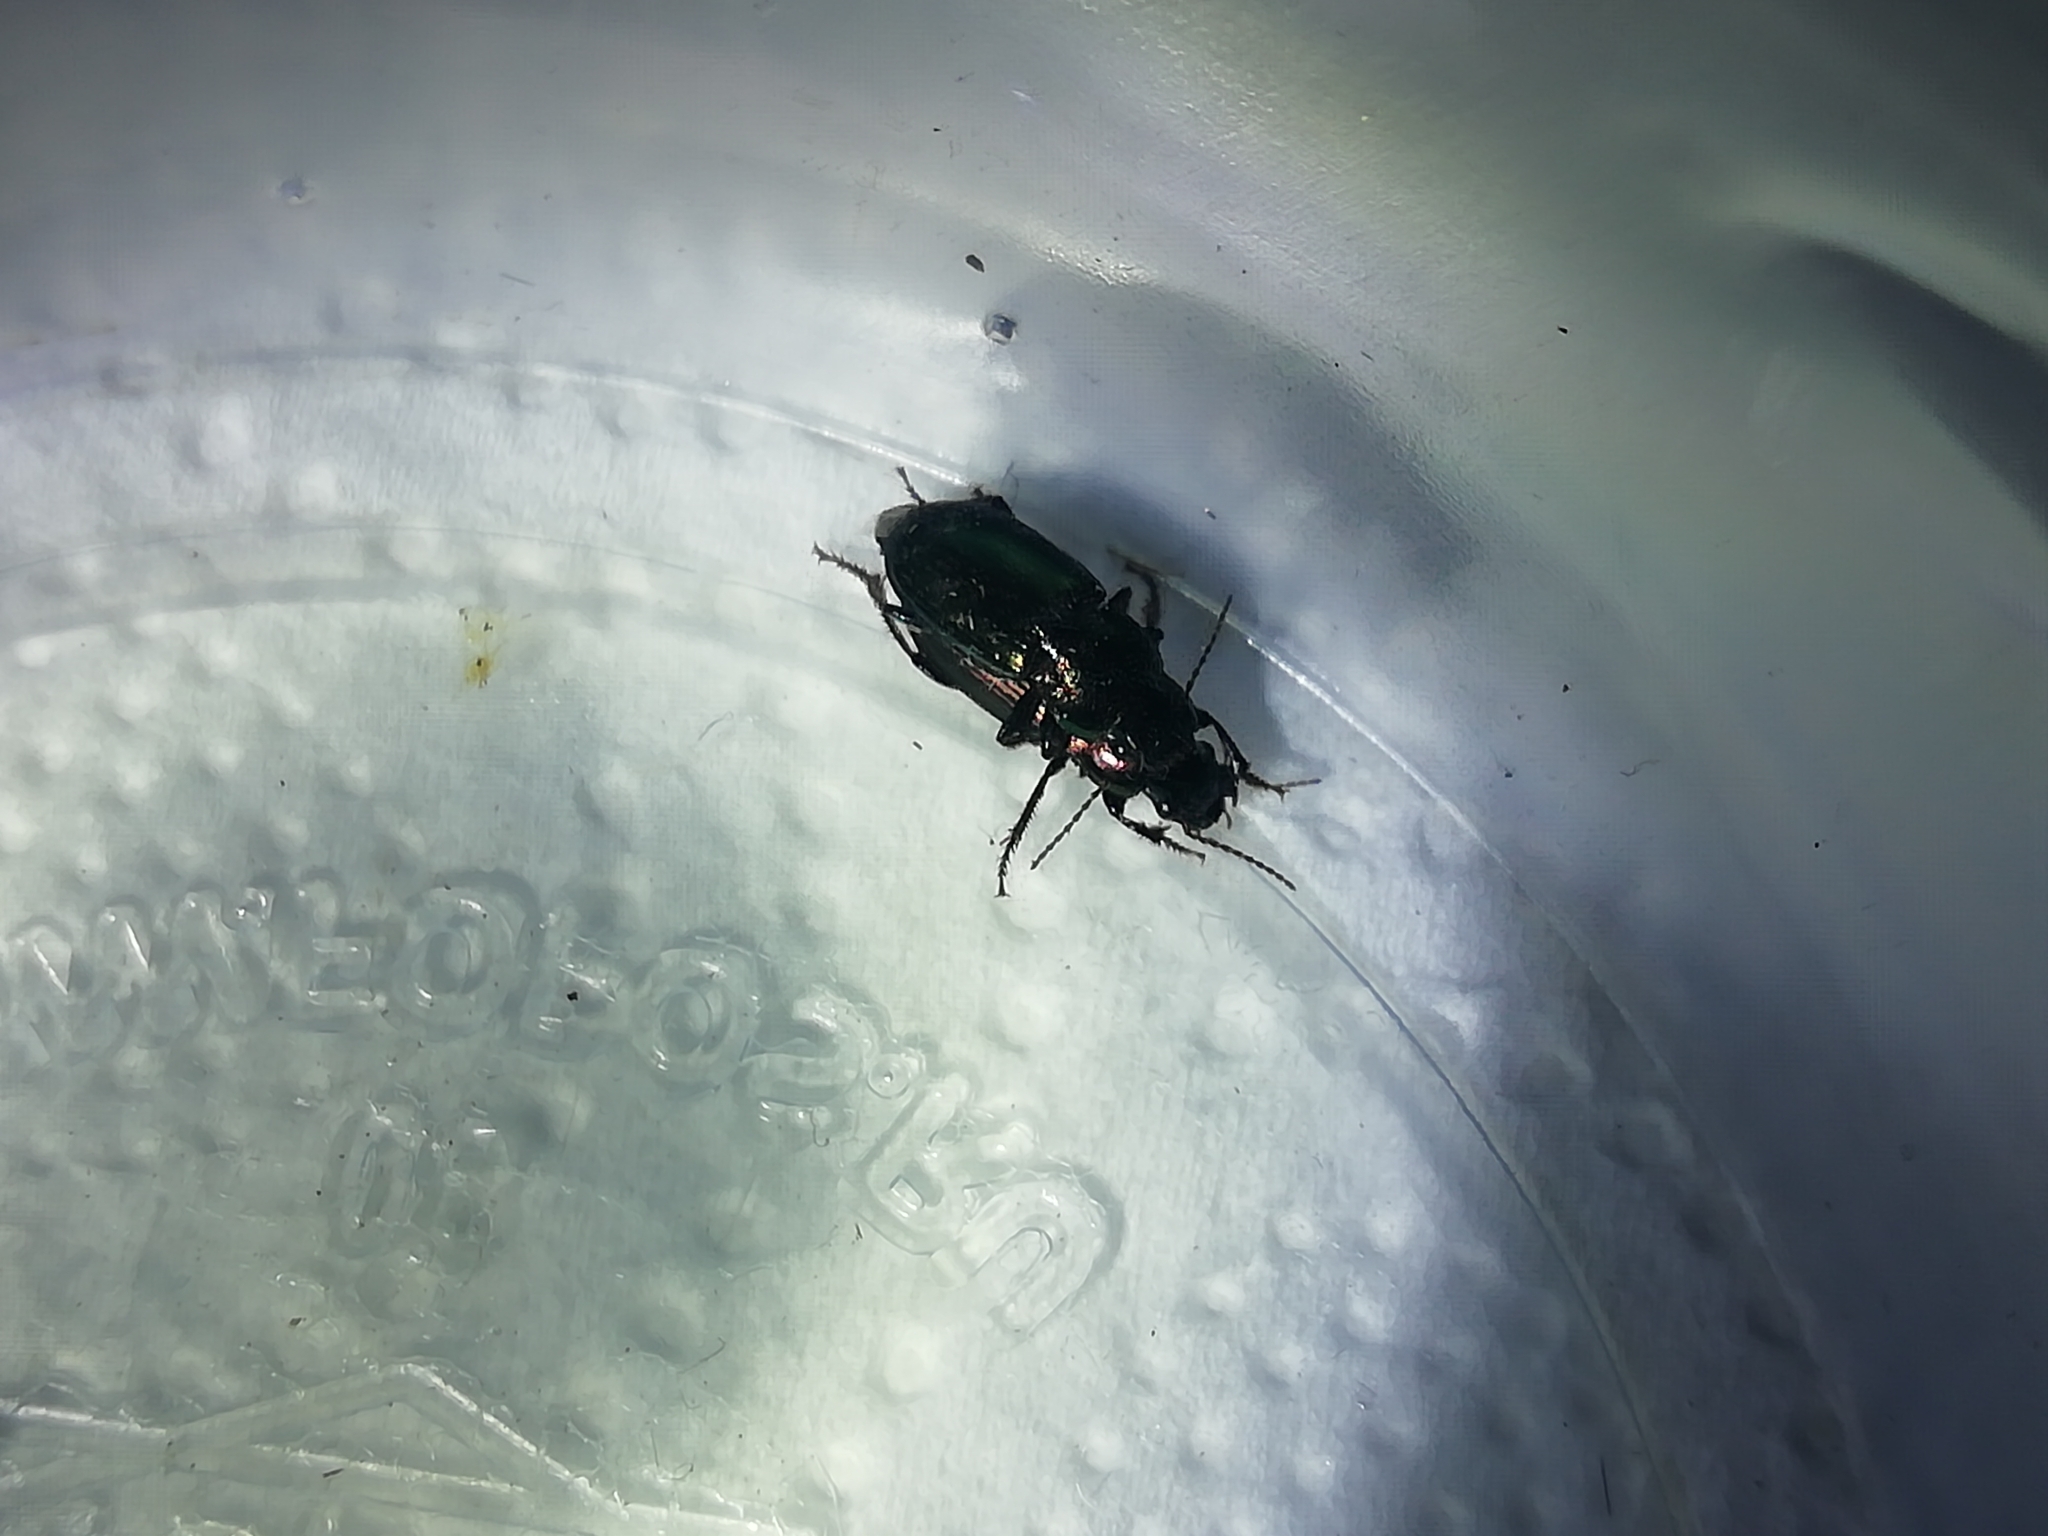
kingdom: Animalia
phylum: Arthropoda
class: Insecta
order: Coleoptera
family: Carabidae
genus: Harpalus
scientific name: Harpalus distinguendus
